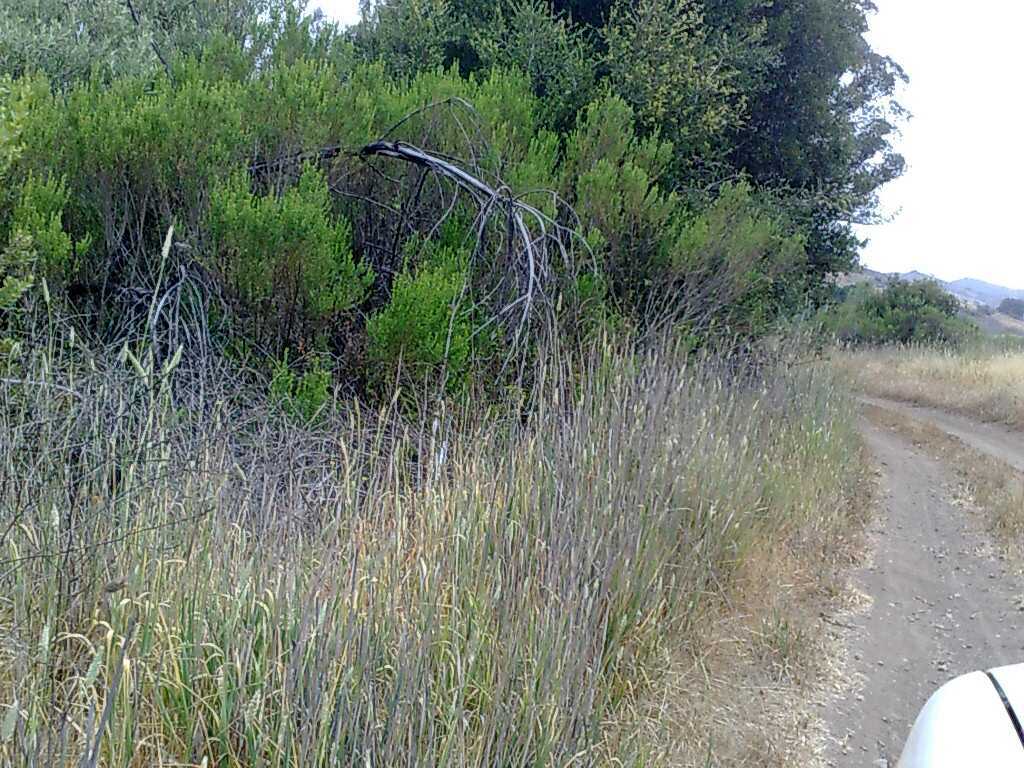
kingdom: Plantae
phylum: Tracheophyta
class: Liliopsida
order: Poales
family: Poaceae
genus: Phalaris
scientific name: Phalaris aquatica
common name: Bulbous canary-grass
